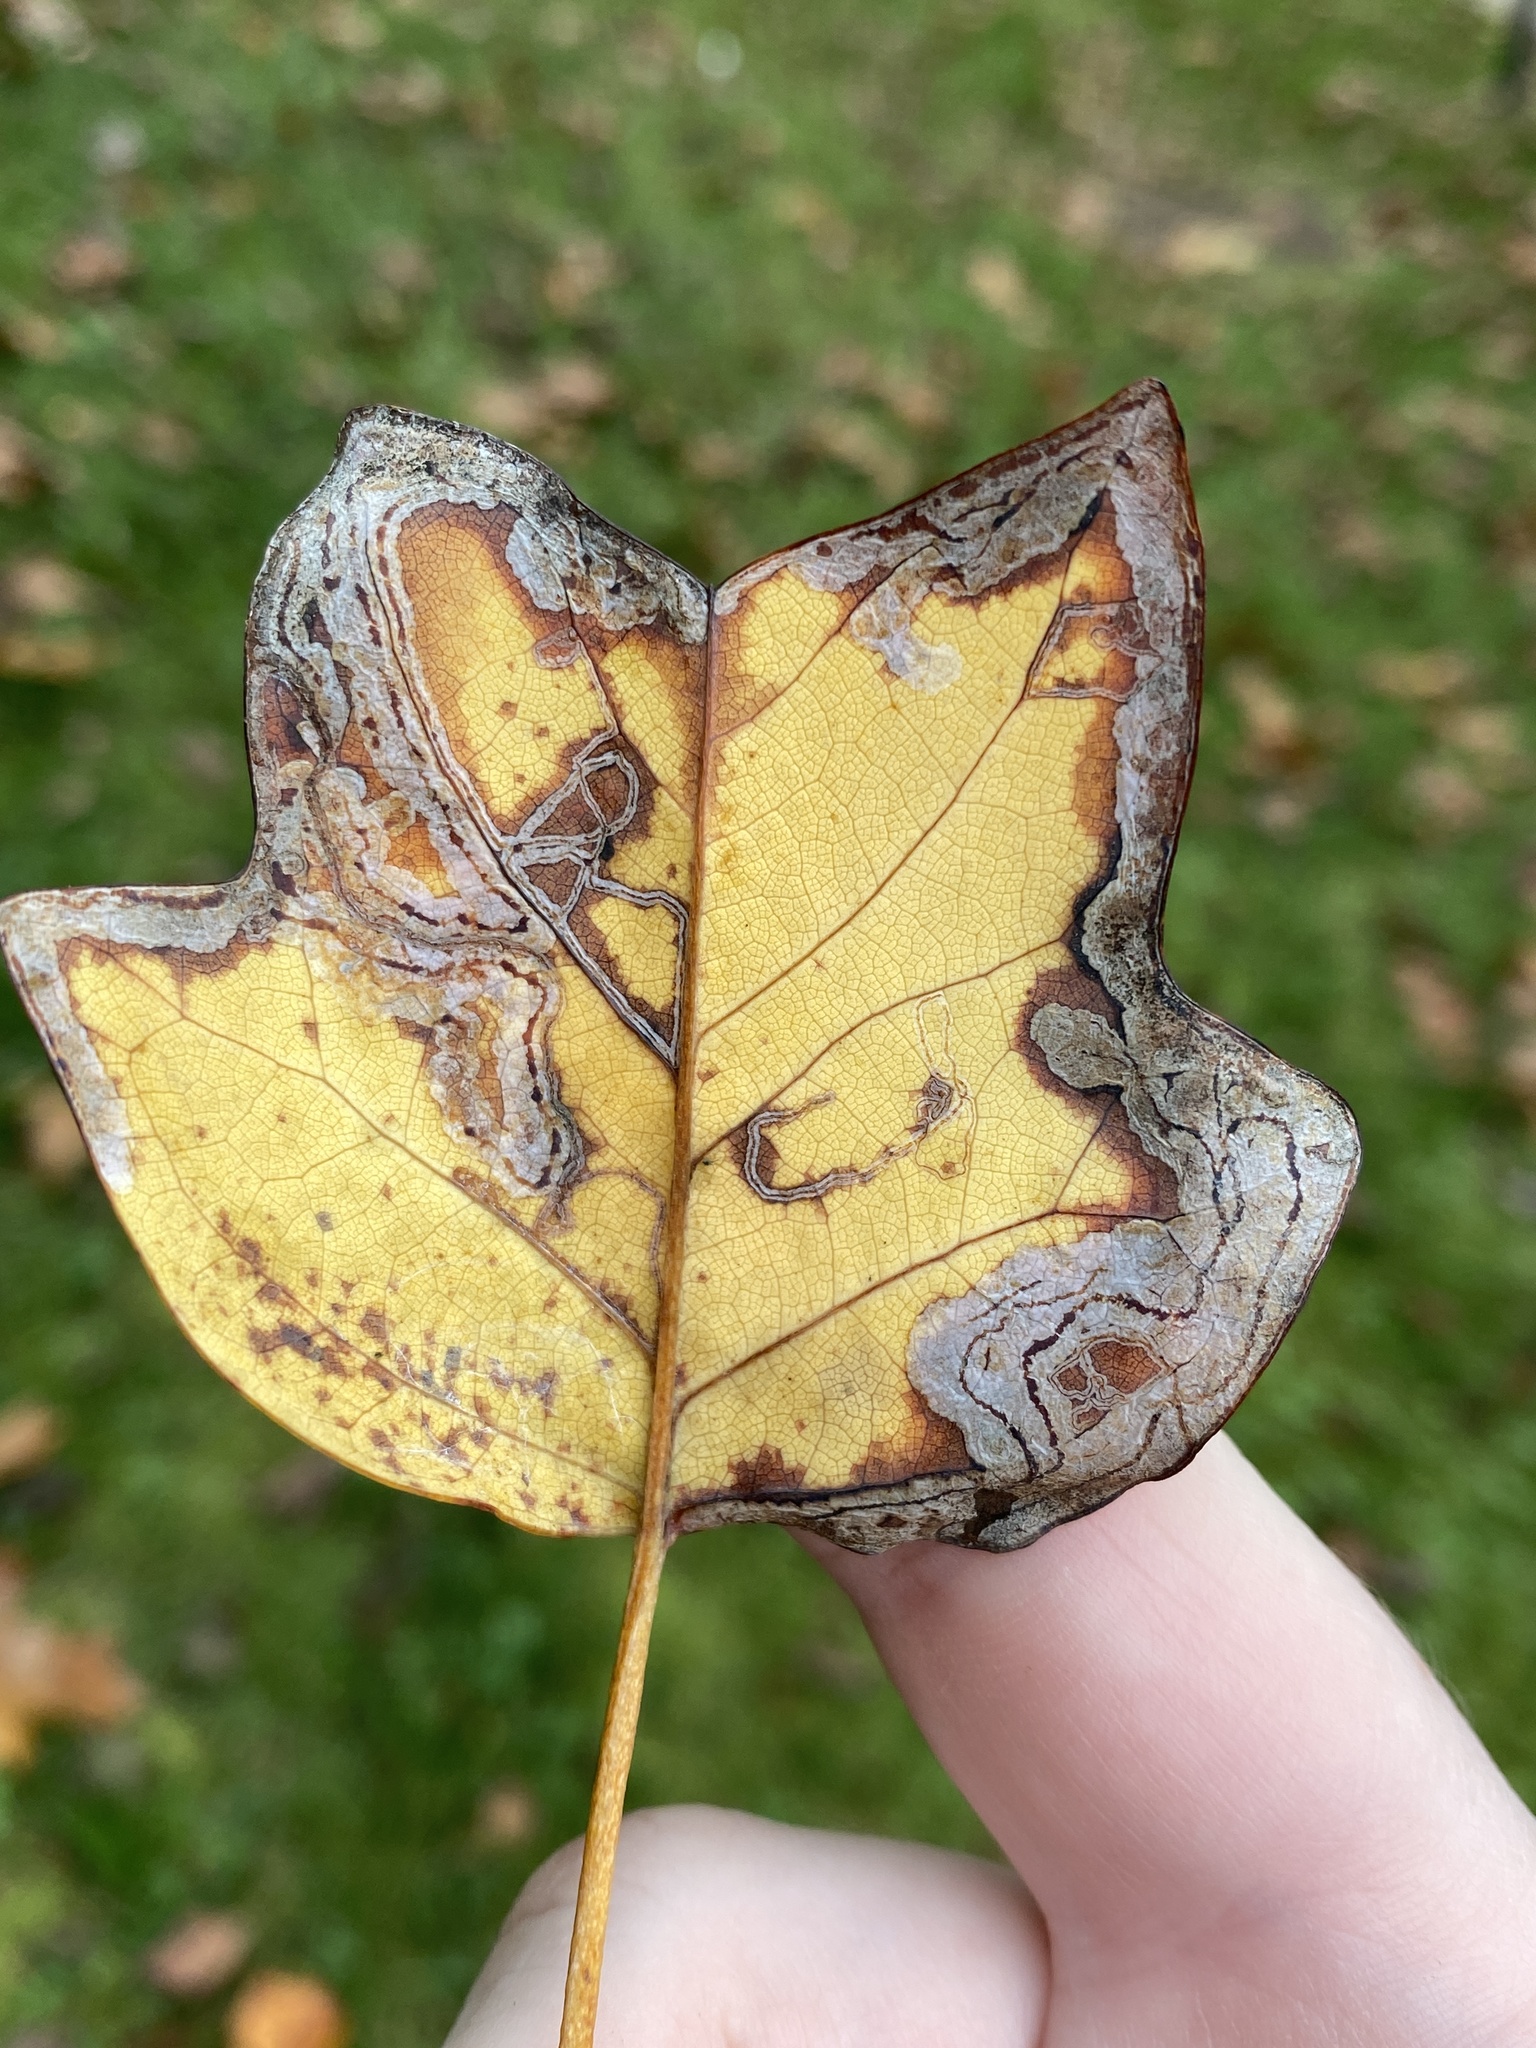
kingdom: Animalia
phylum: Arthropoda
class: Insecta
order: Lepidoptera
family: Gracillariidae
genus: Phyllocnistis
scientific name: Phyllocnistis liriodendronella
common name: Tulip tree leaf miner
